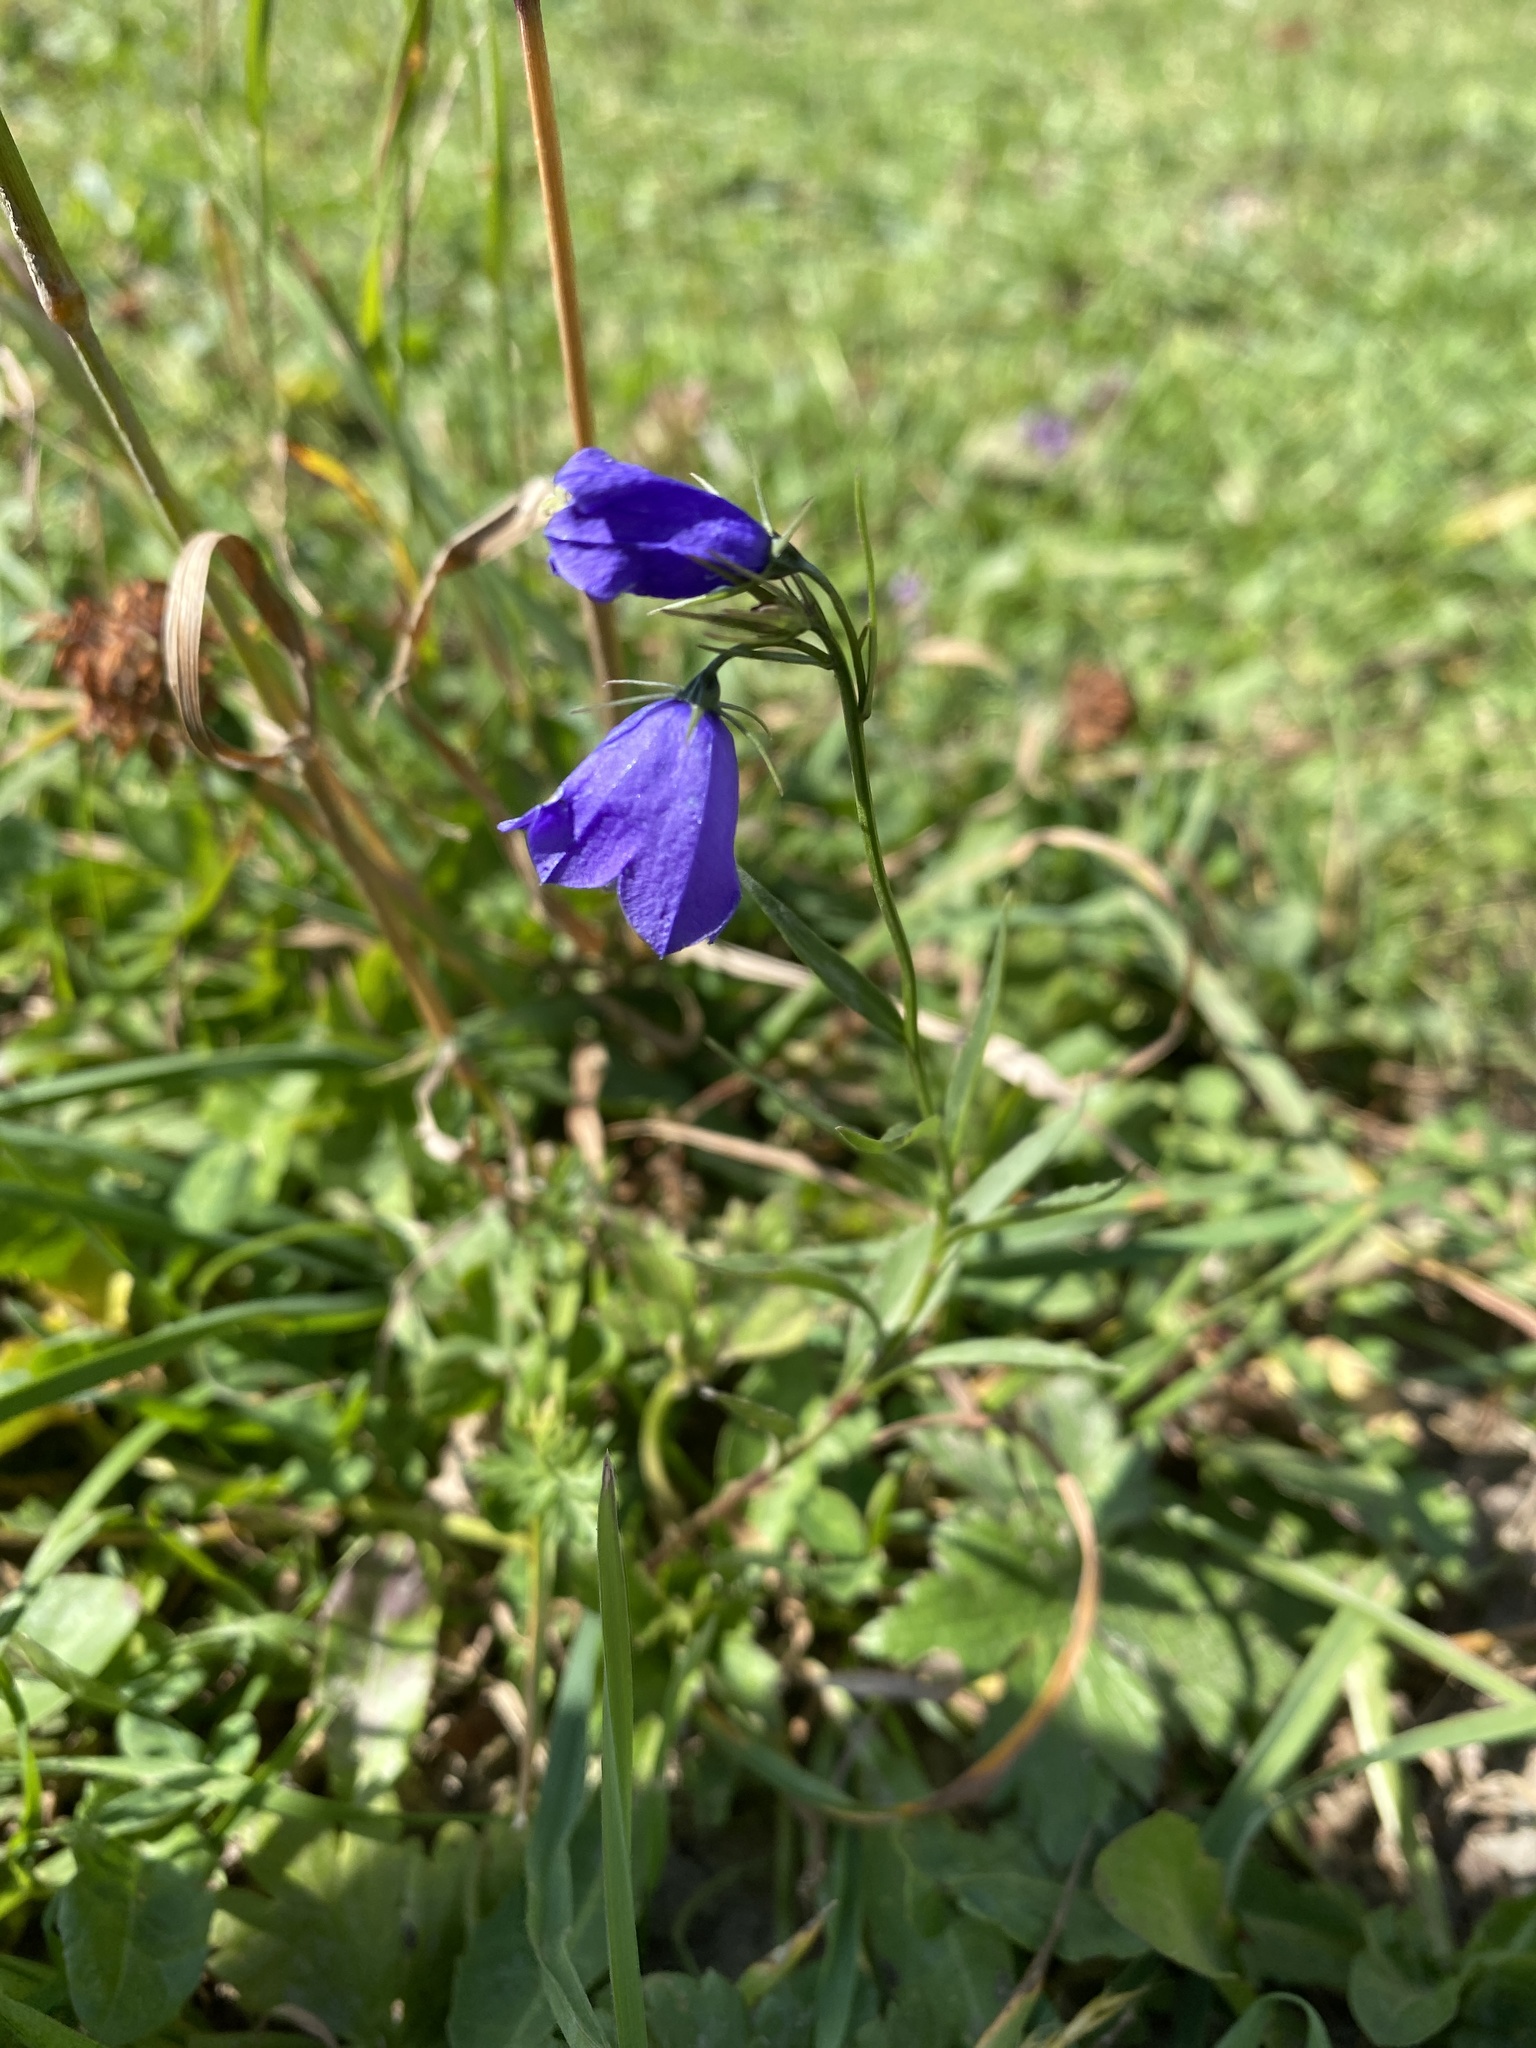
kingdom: Plantae
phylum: Tracheophyta
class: Magnoliopsida
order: Asterales
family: Campanulaceae
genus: Campanula
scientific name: Campanula scheuchzeri
